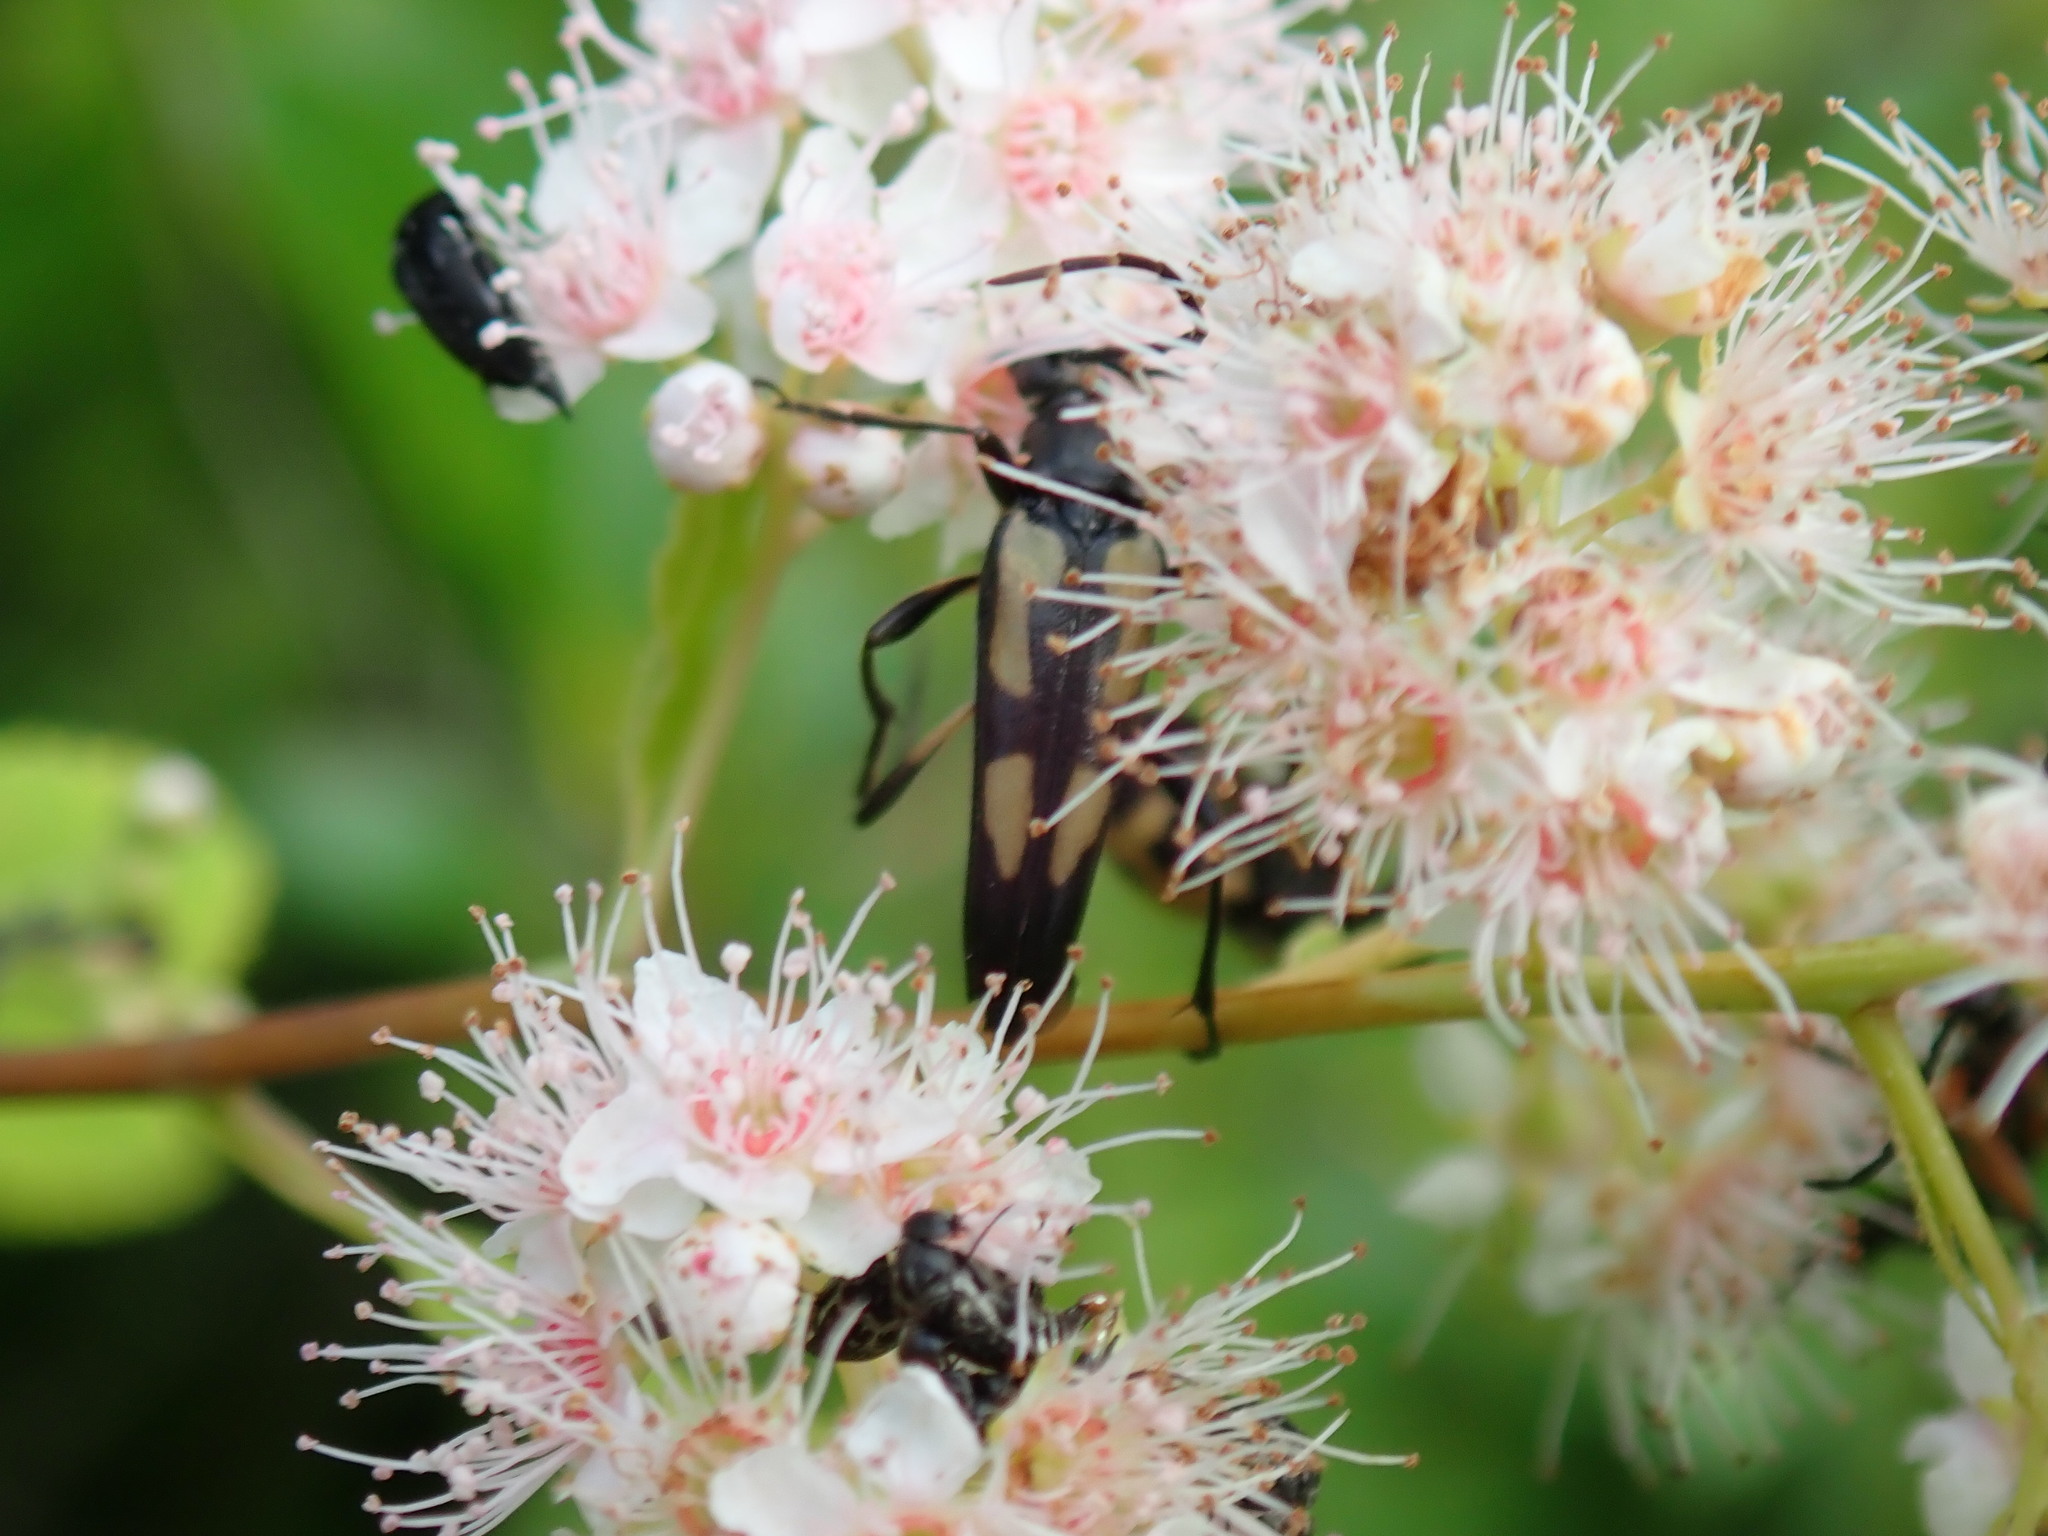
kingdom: Animalia
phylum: Arthropoda
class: Insecta
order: Coleoptera
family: Cerambycidae
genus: Etorofus
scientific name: Etorofus
